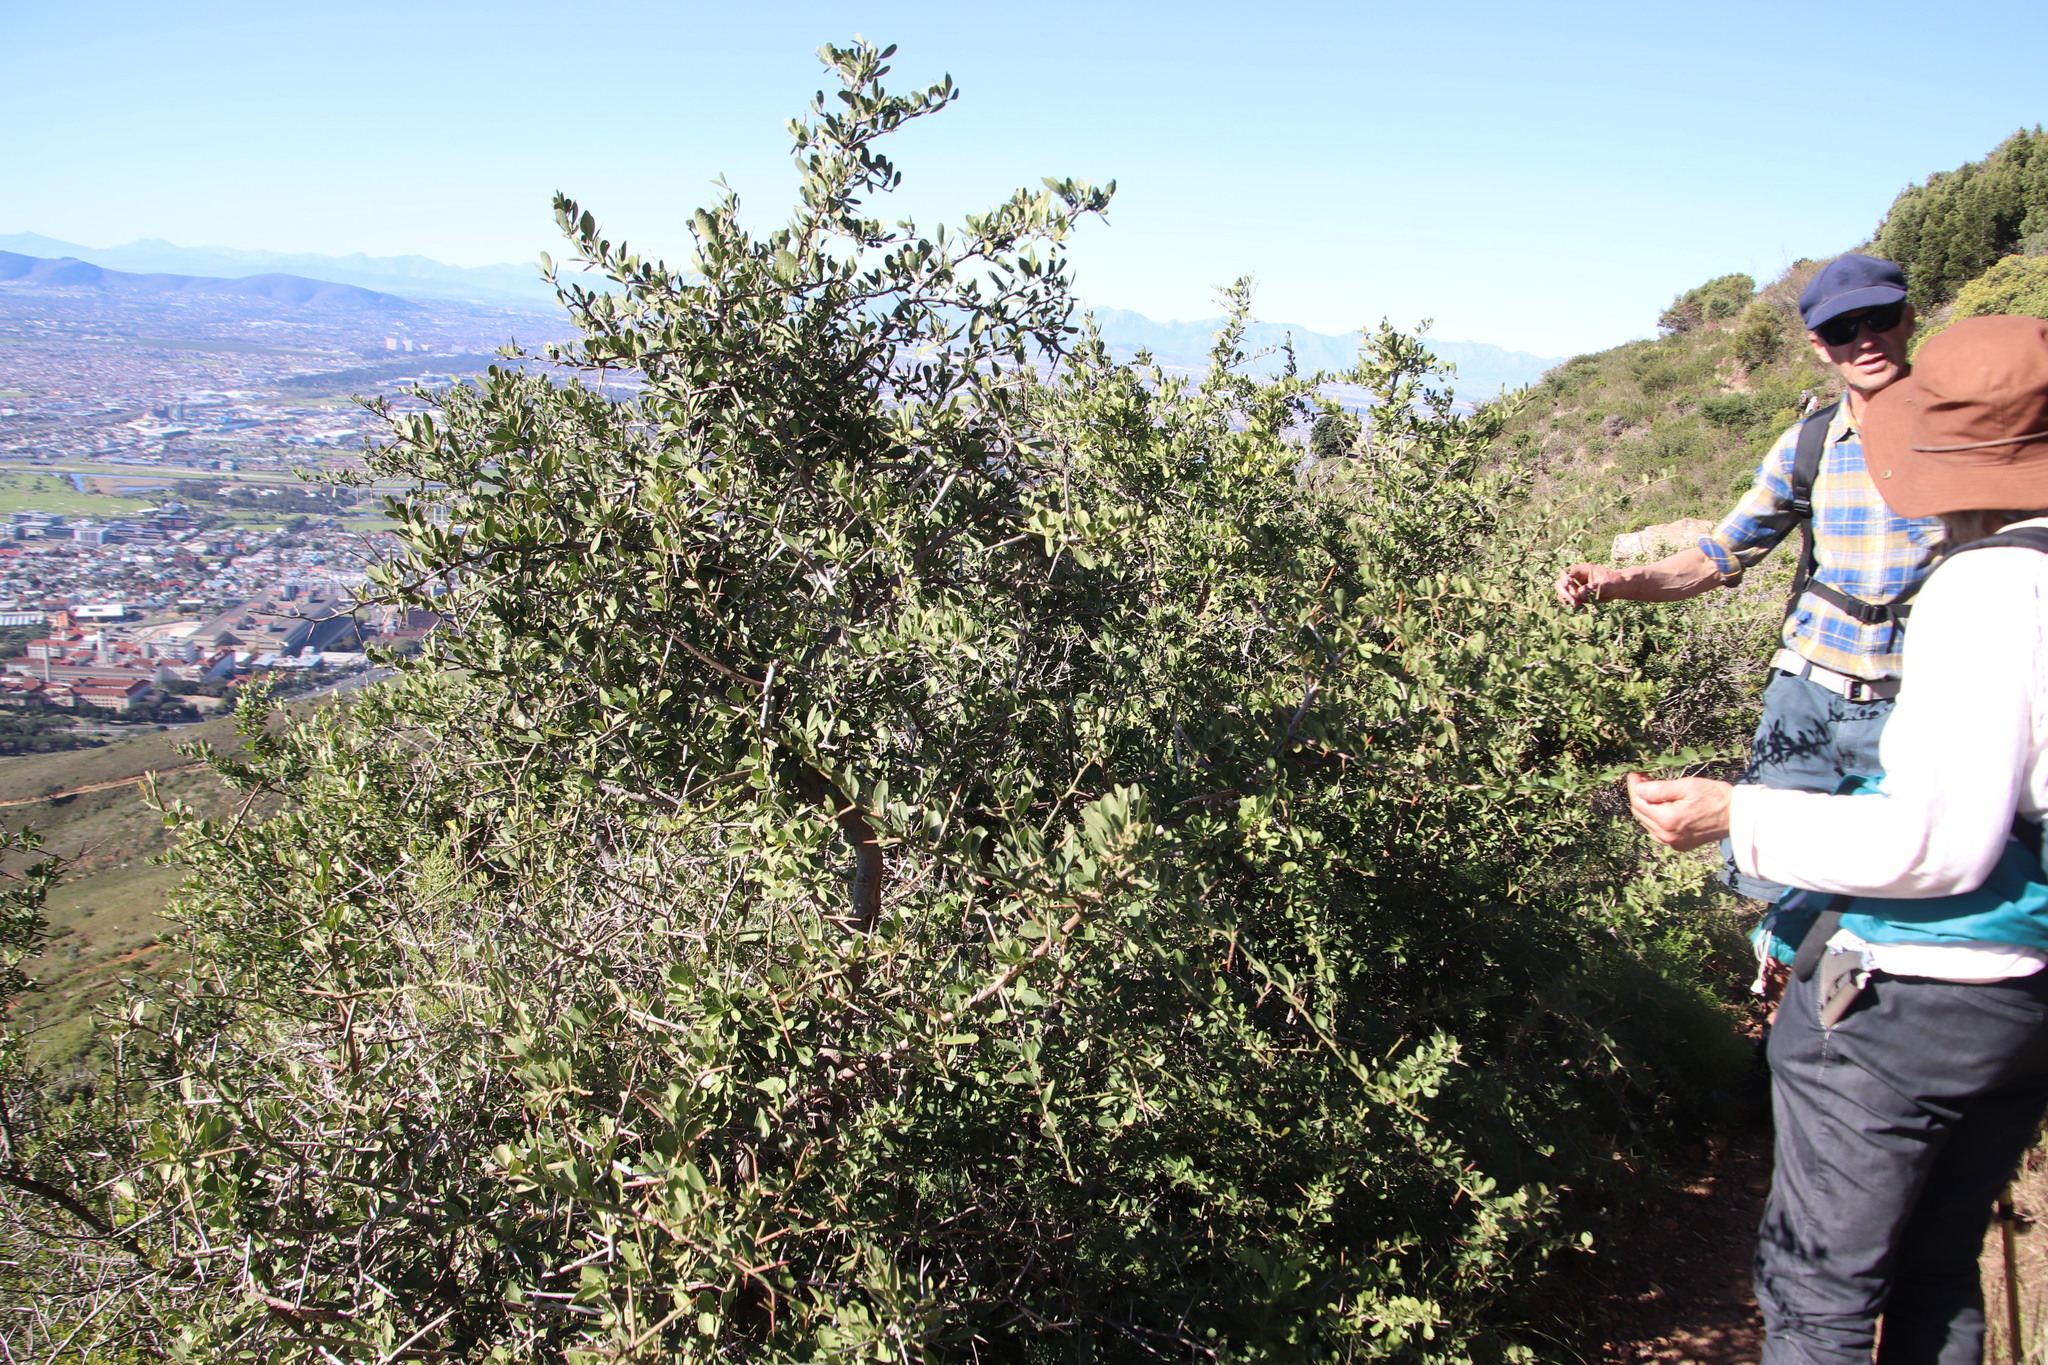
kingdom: Plantae
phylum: Tracheophyta
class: Magnoliopsida
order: Celastrales
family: Celastraceae
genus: Gymnosporia
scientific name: Gymnosporia buxifolia
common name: Common spike-thorn
